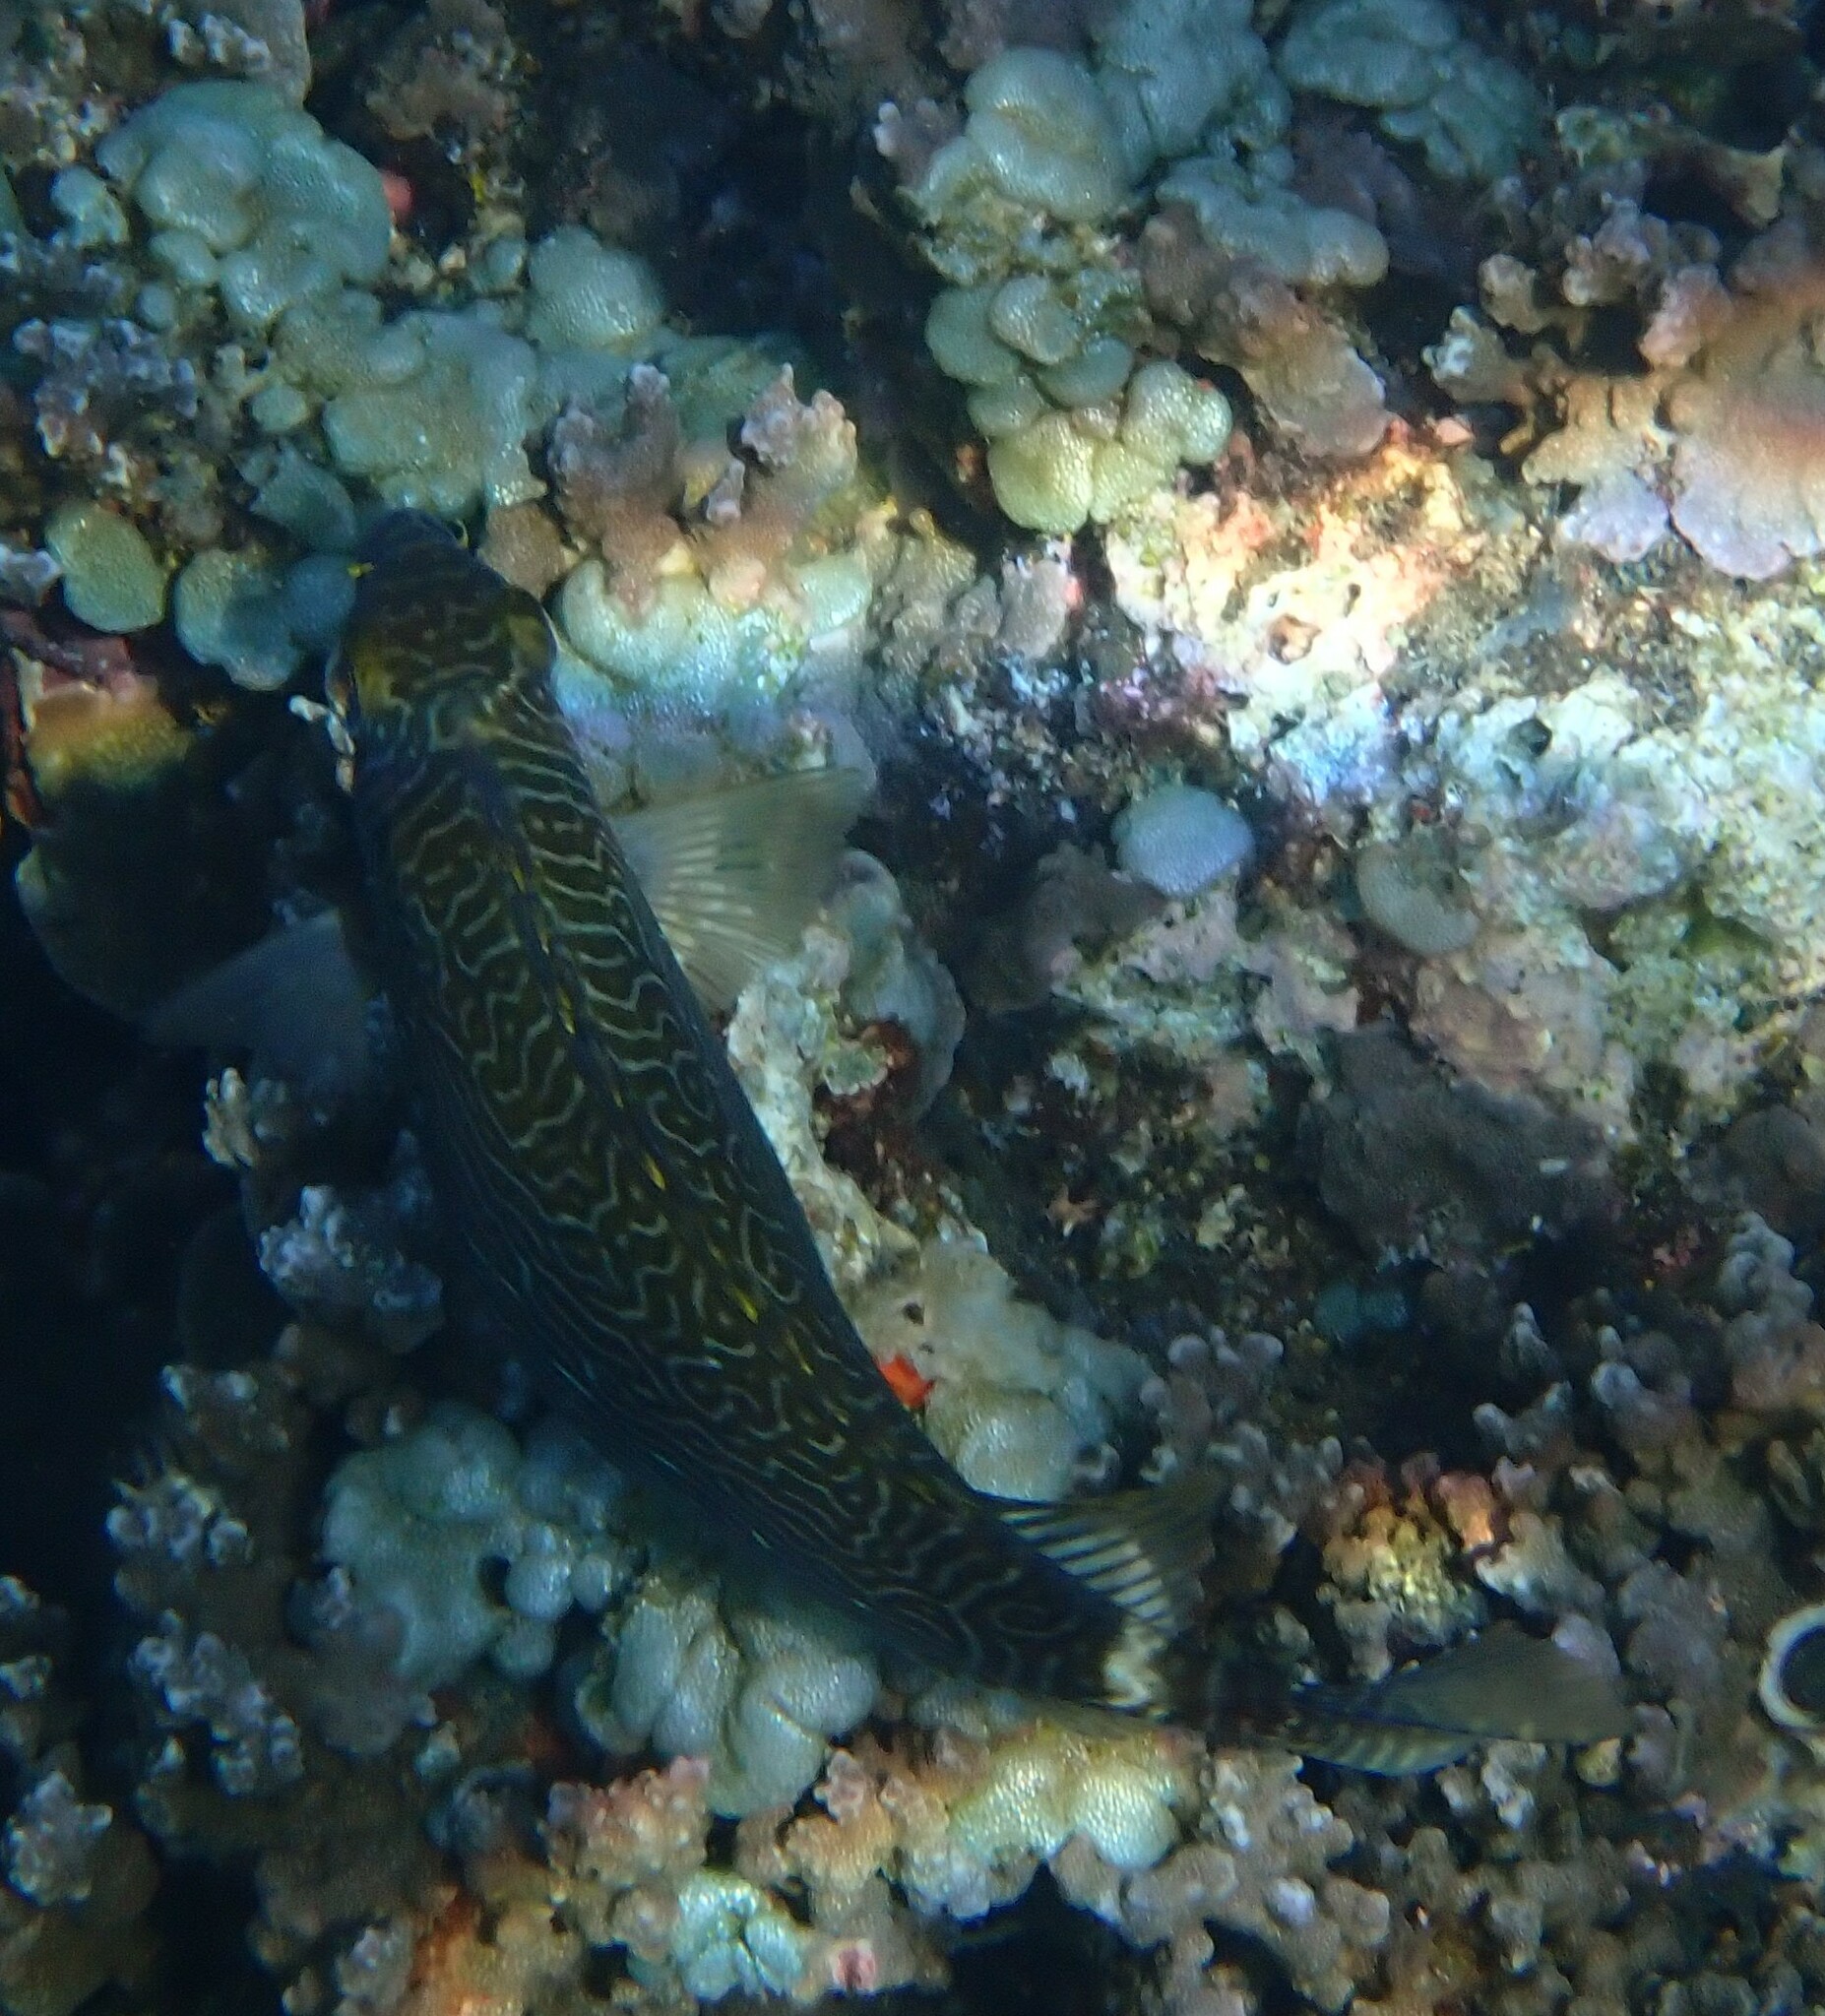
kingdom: Animalia
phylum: Chordata
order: Perciformes
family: Siganidae
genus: Siganus
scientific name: Siganus spinus
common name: Scribbled rabbitfish
